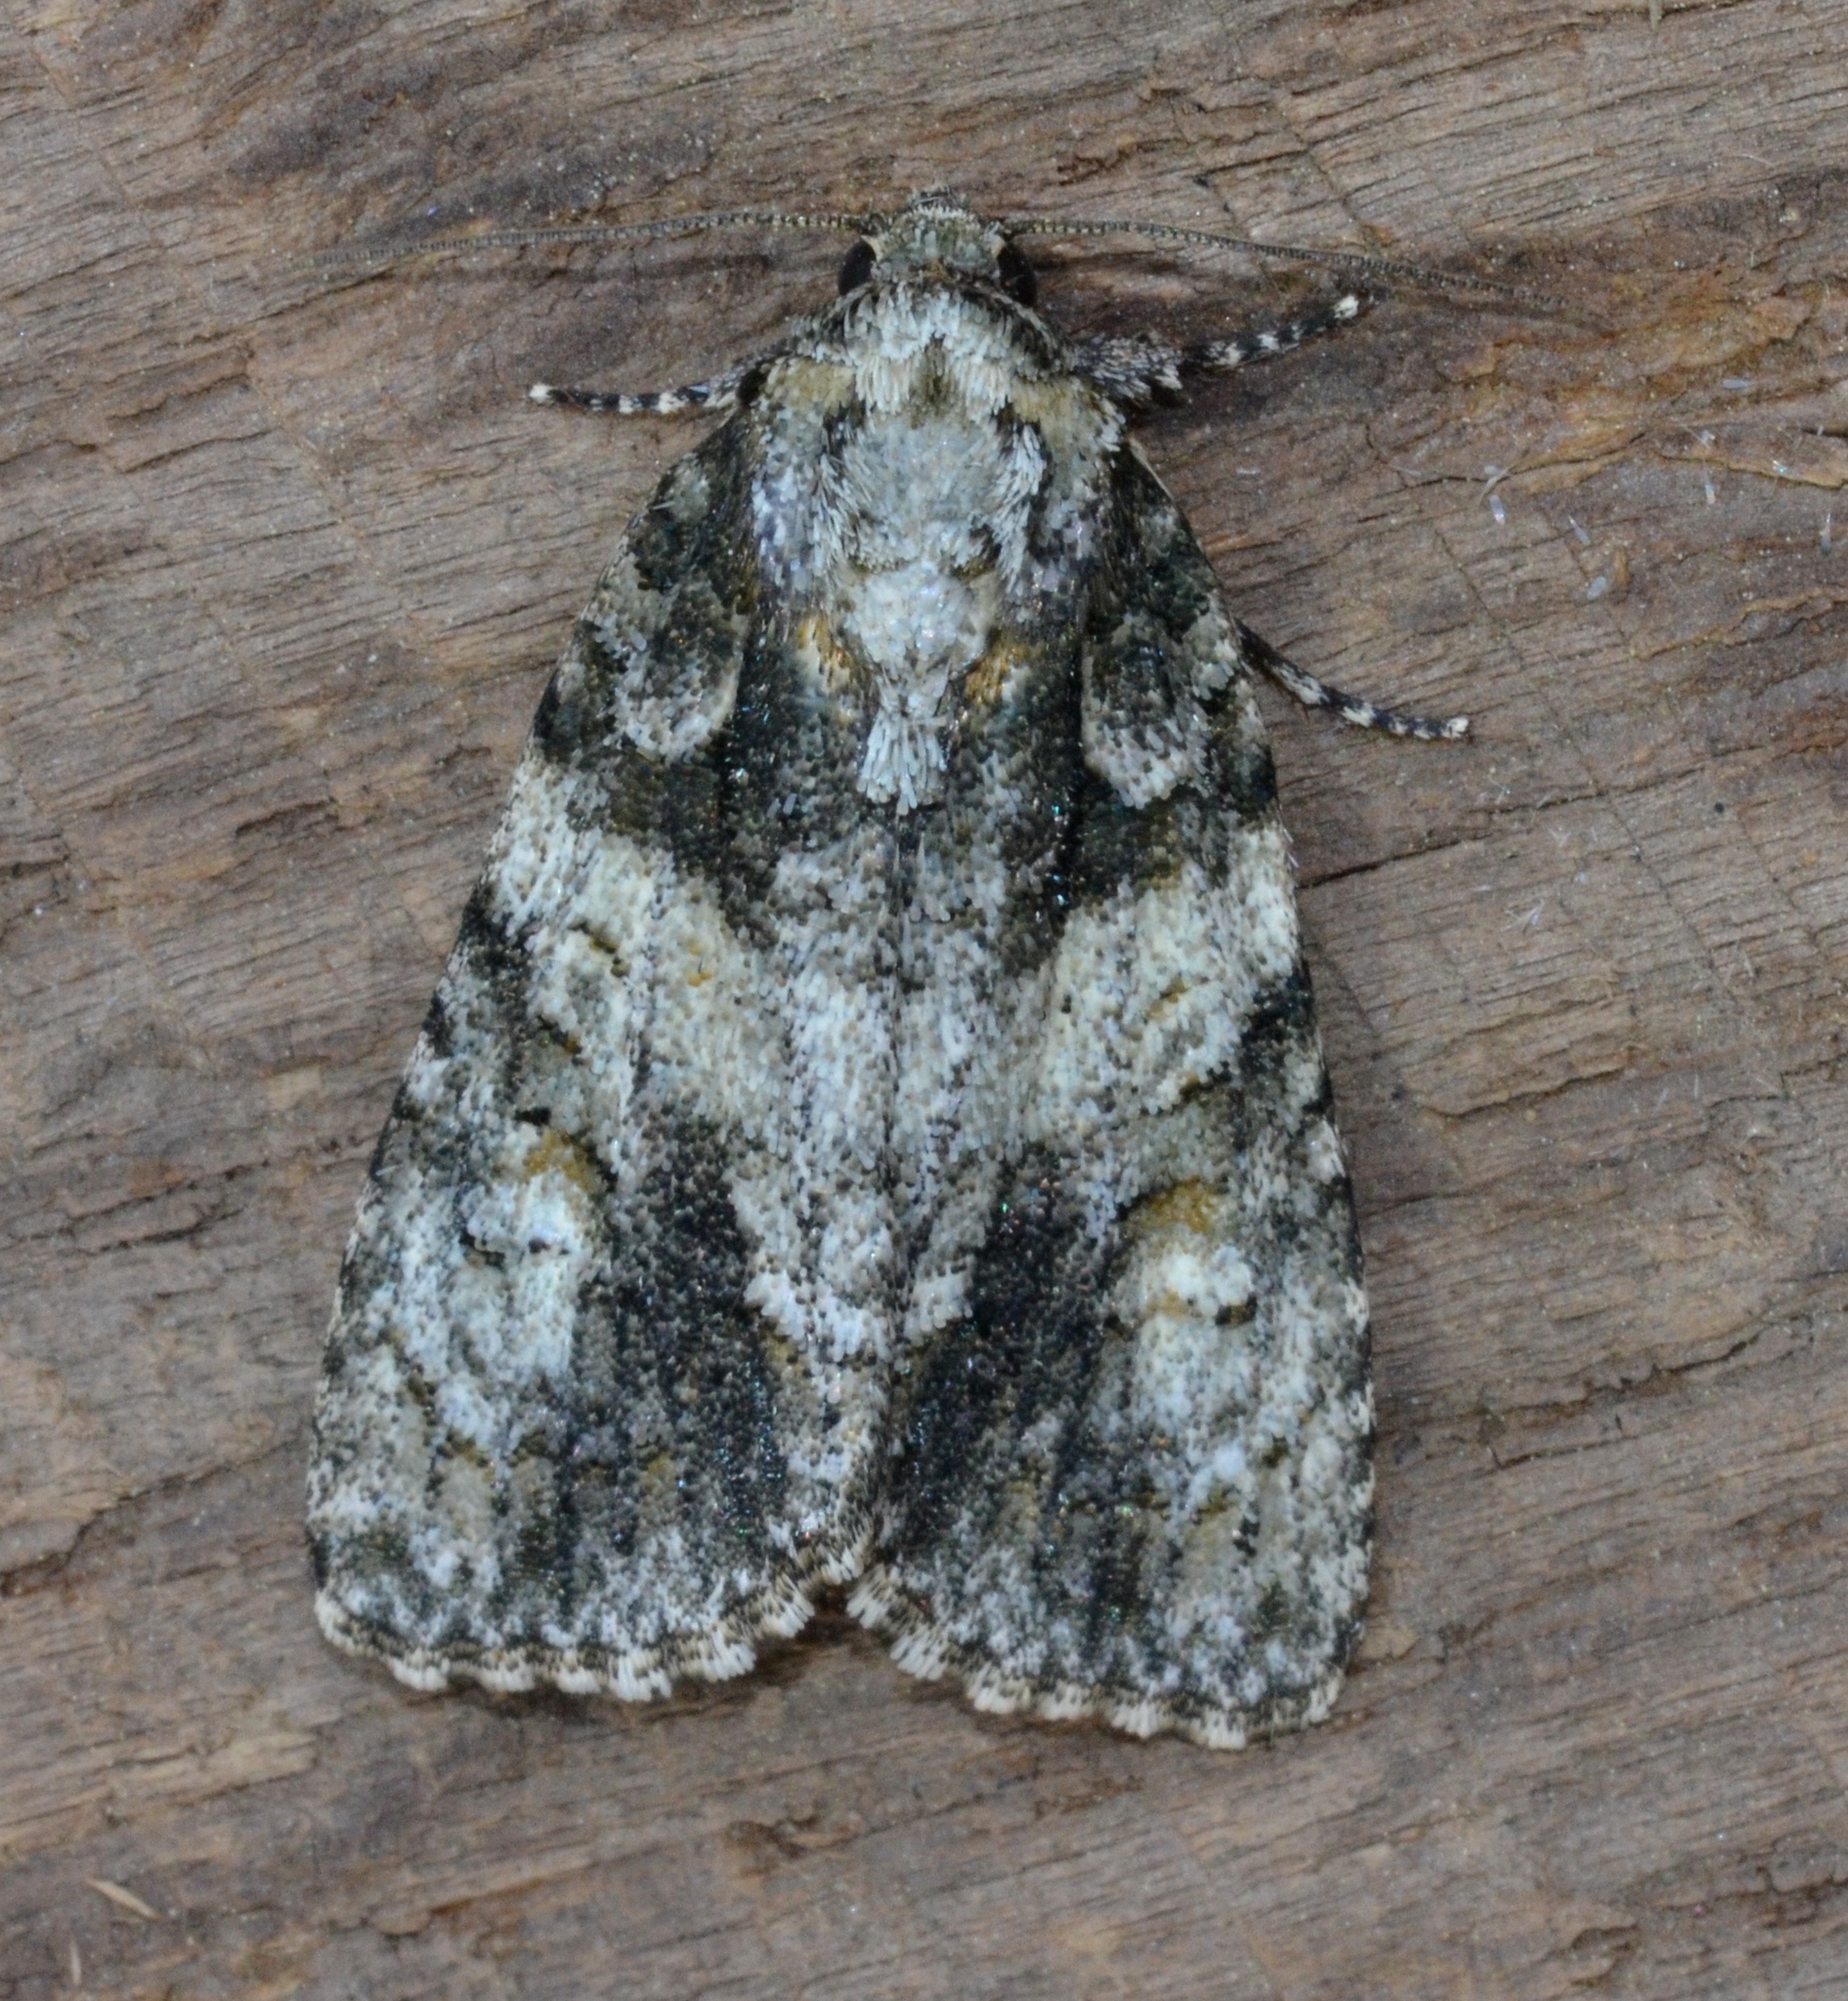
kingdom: Animalia
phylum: Arthropoda
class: Insecta
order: Lepidoptera
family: Noctuidae
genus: Acronicta
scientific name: Acronicta increta
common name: Eclipsed oak dagger
